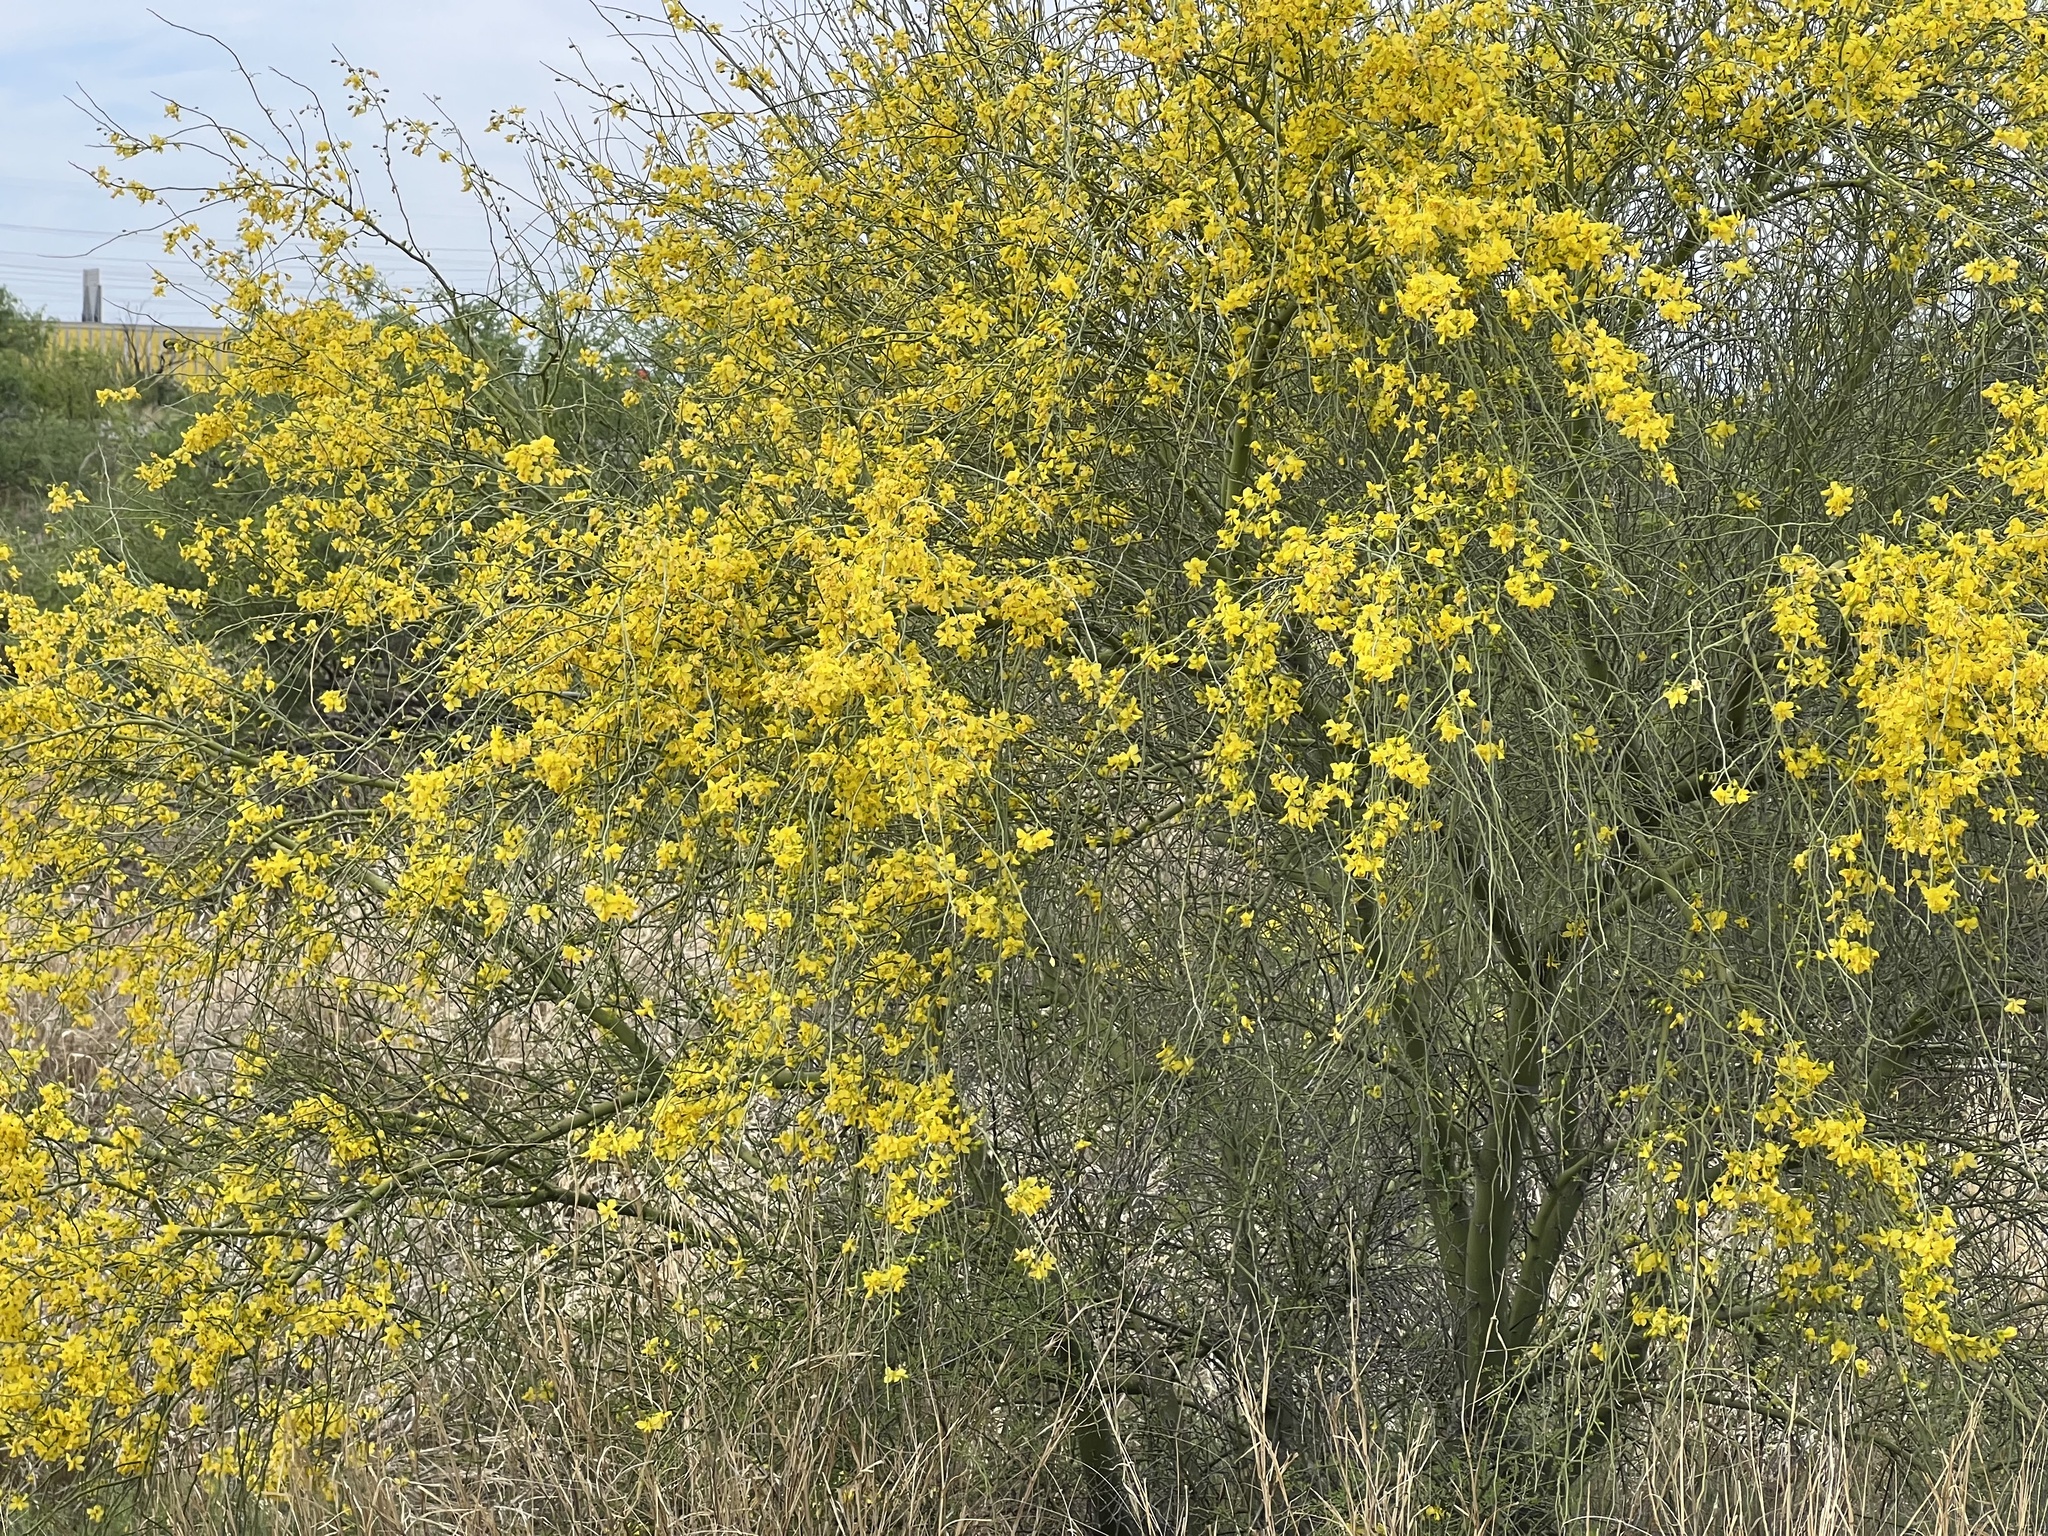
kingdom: Plantae
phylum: Tracheophyta
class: Magnoliopsida
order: Fabales
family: Fabaceae
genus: Parkinsonia
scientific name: Parkinsonia florida
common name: Blue paloverde
